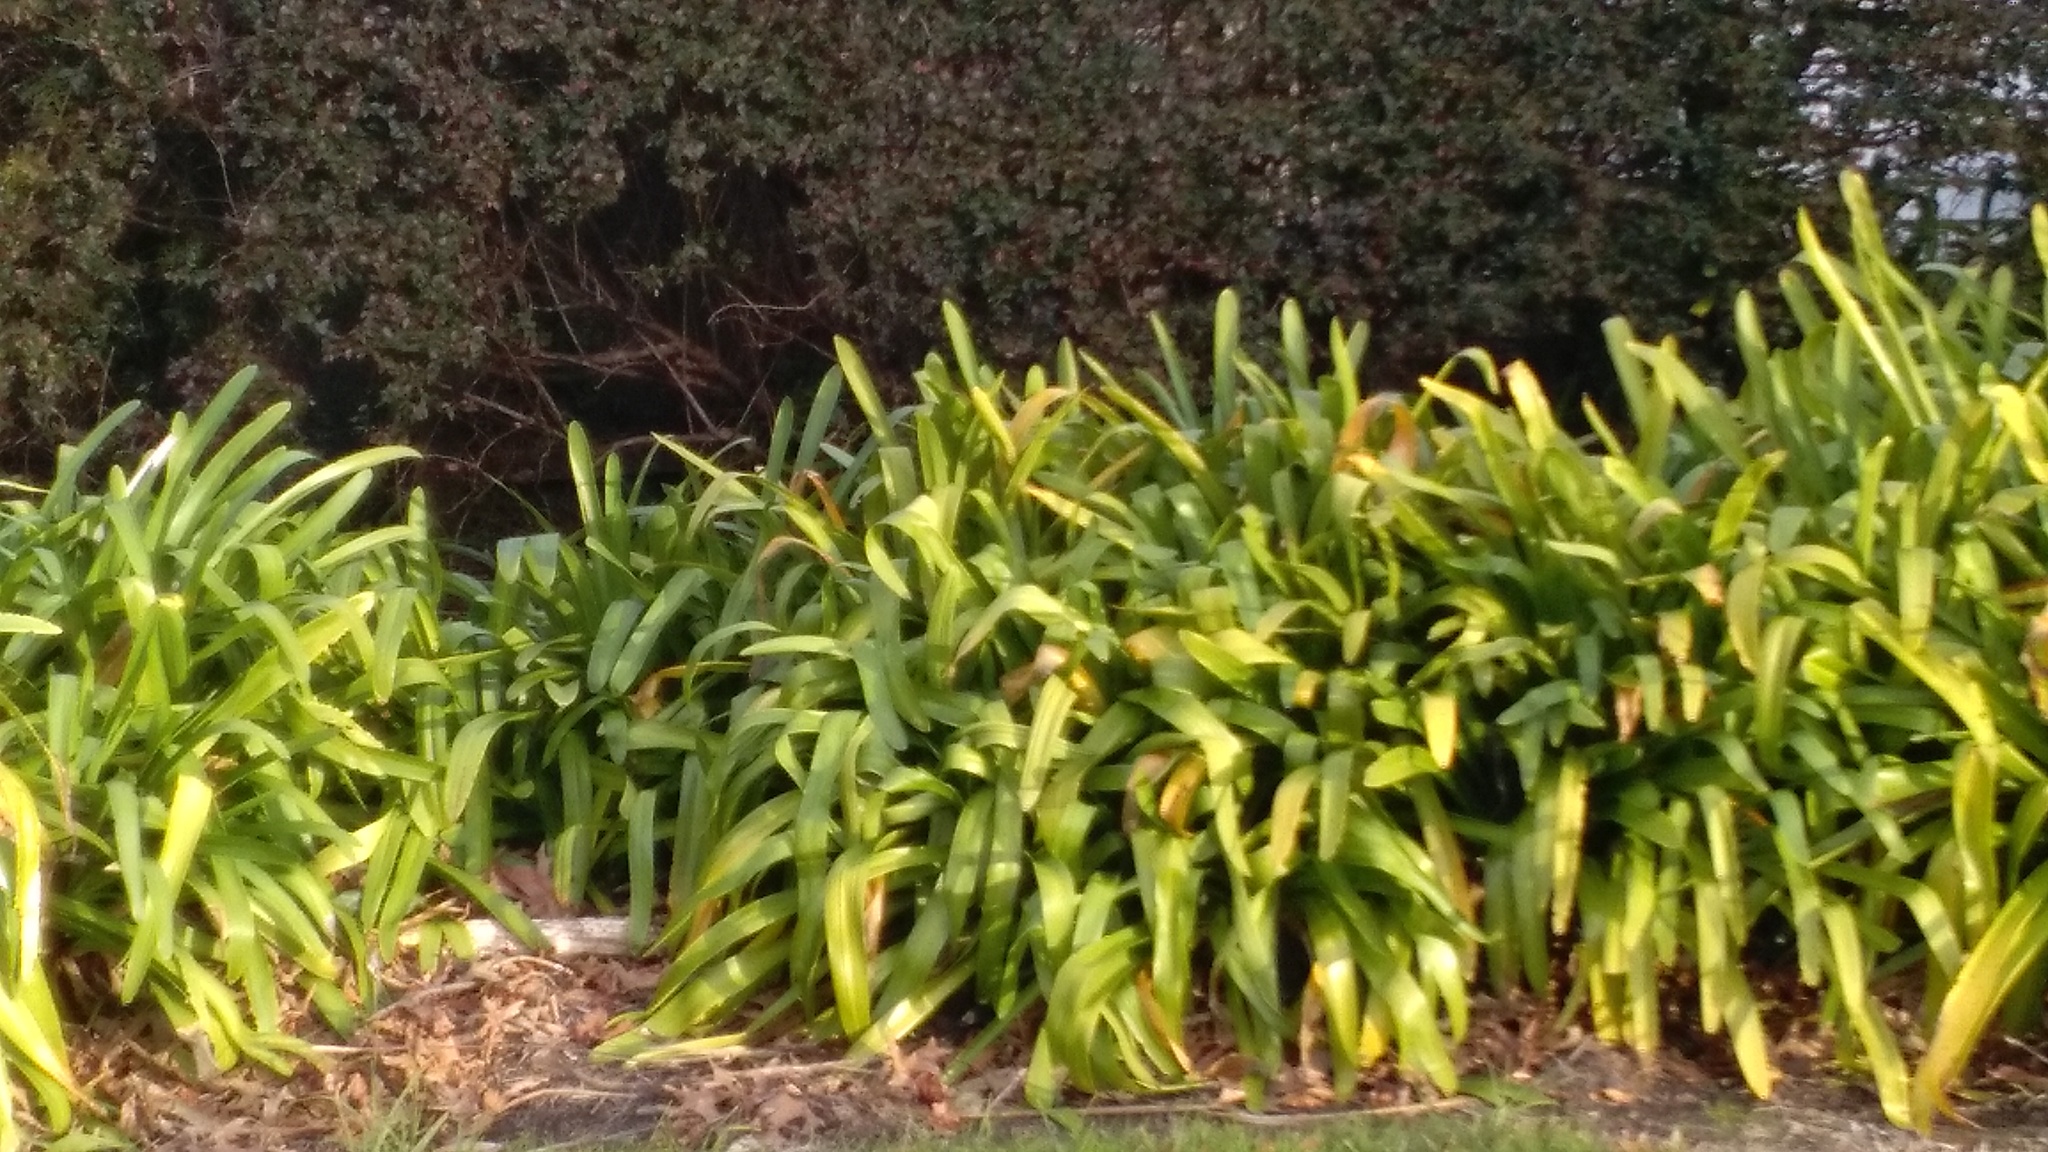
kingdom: Plantae
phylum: Tracheophyta
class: Liliopsida
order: Asparagales
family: Amaryllidaceae
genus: Agapanthus
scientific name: Agapanthus praecox
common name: African-lily
